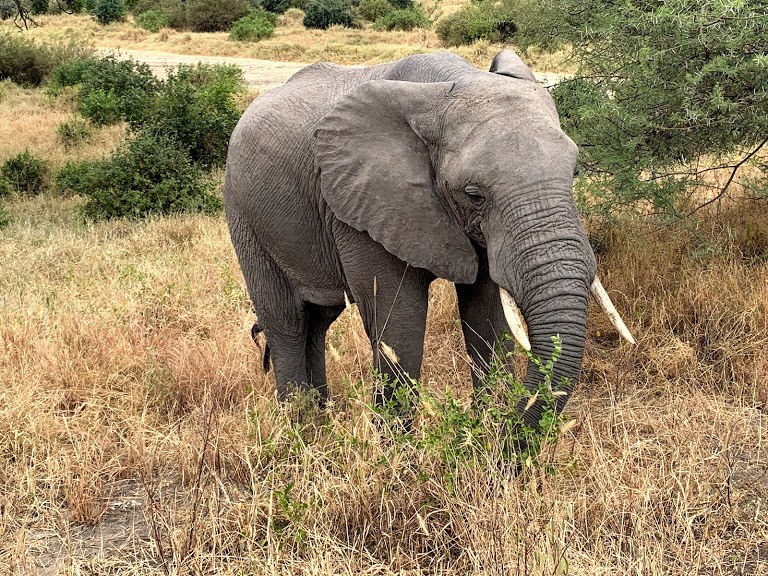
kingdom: Animalia
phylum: Chordata
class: Mammalia
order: Proboscidea
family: Elephantidae
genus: Loxodonta
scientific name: Loxodonta africana
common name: African elephant
